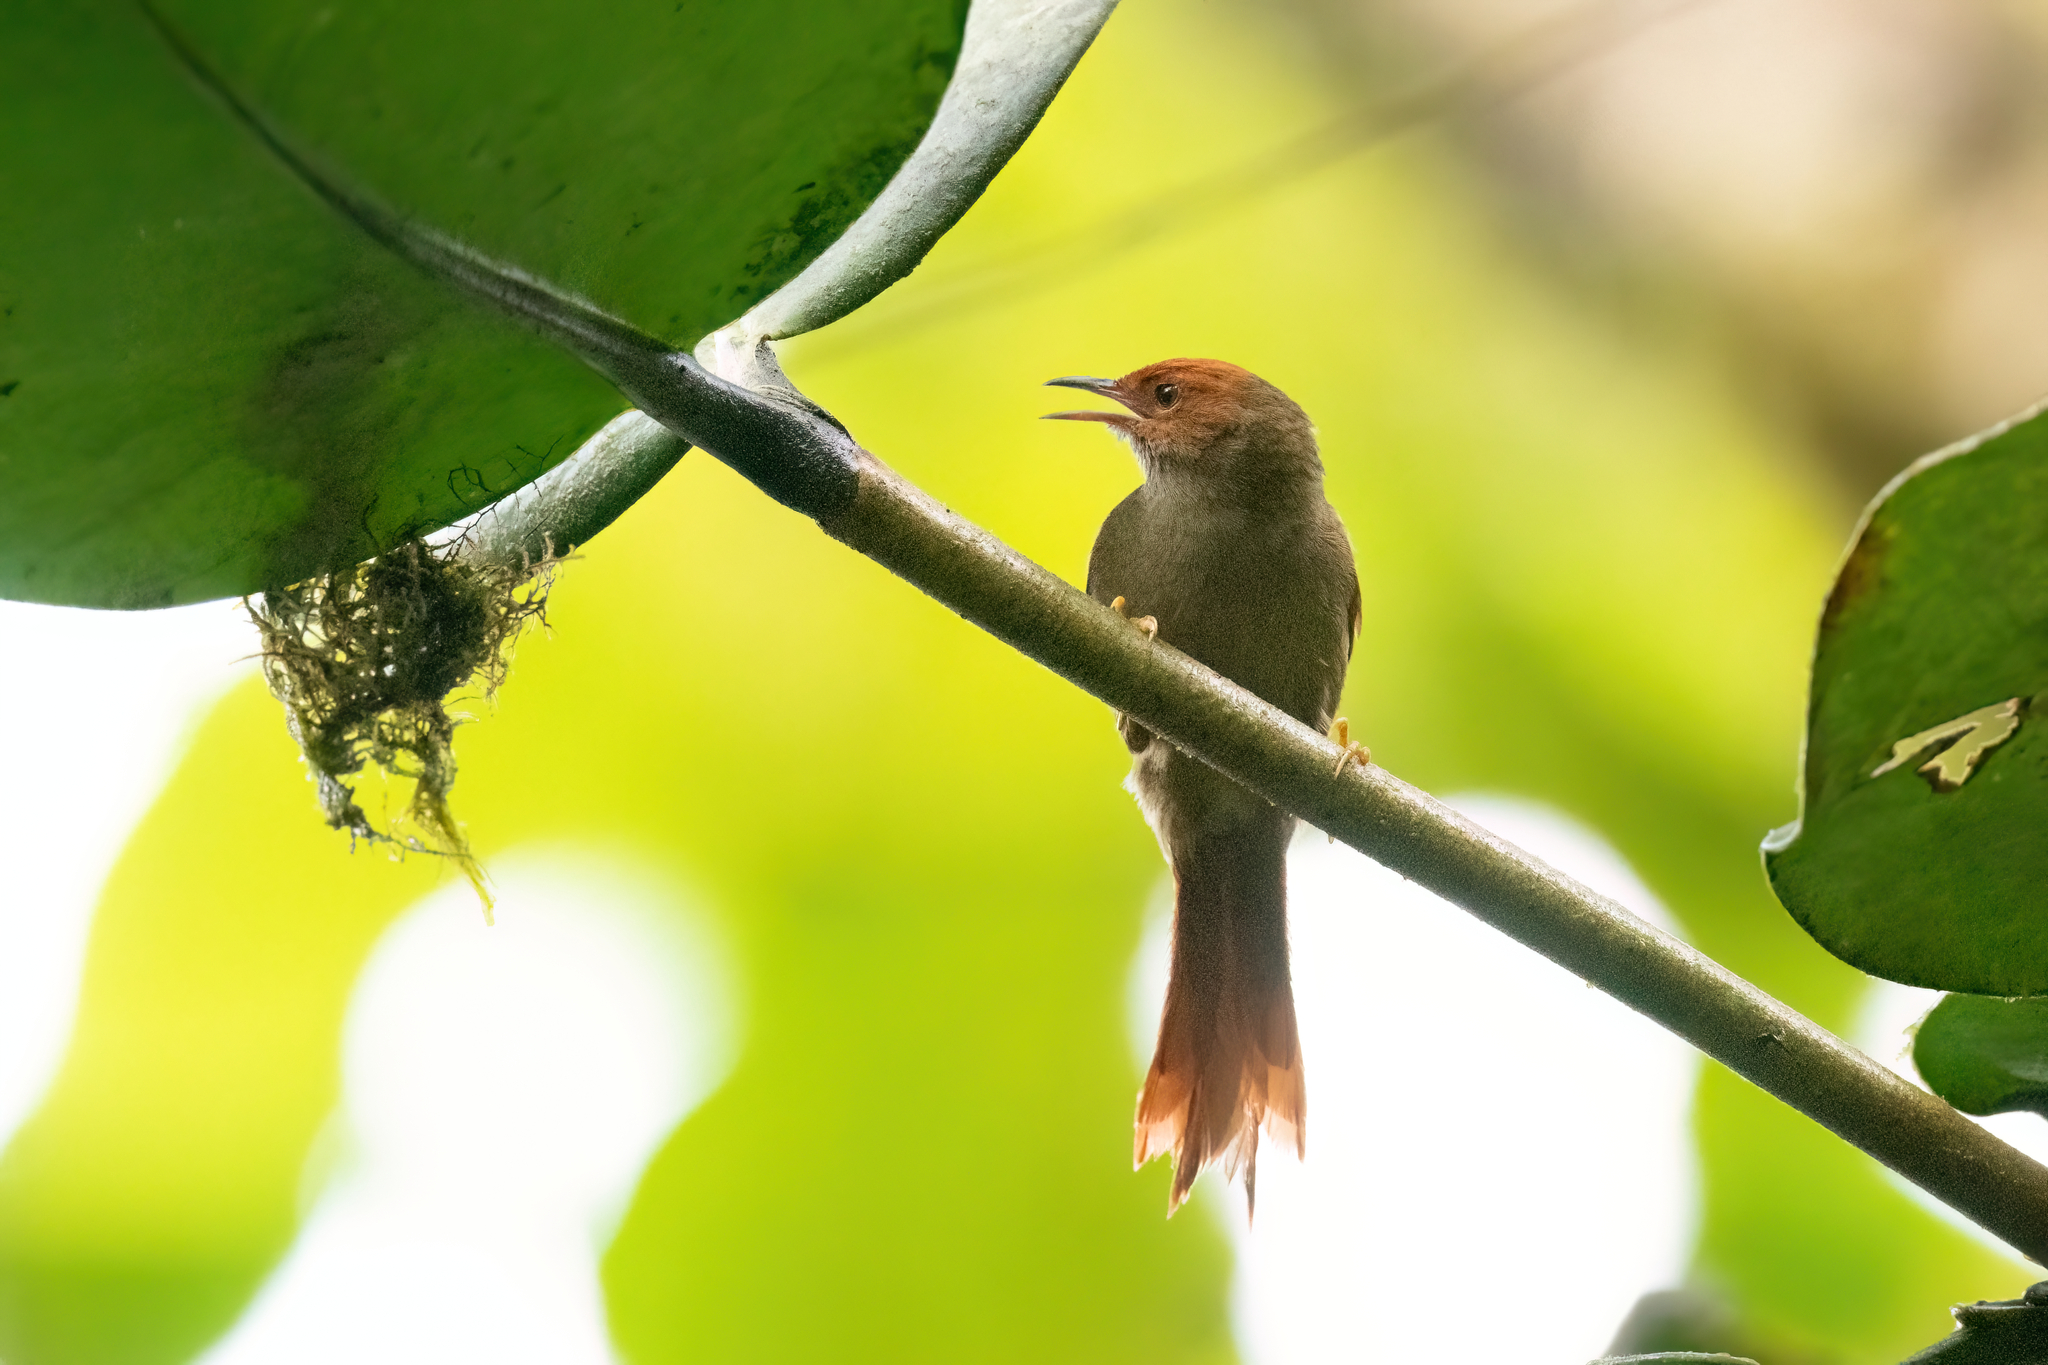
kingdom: Animalia
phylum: Chordata
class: Aves
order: Passeriformes
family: Furnariidae
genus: Cranioleuca
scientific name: Cranioleuca erythrops
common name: Red-faced spinetail
